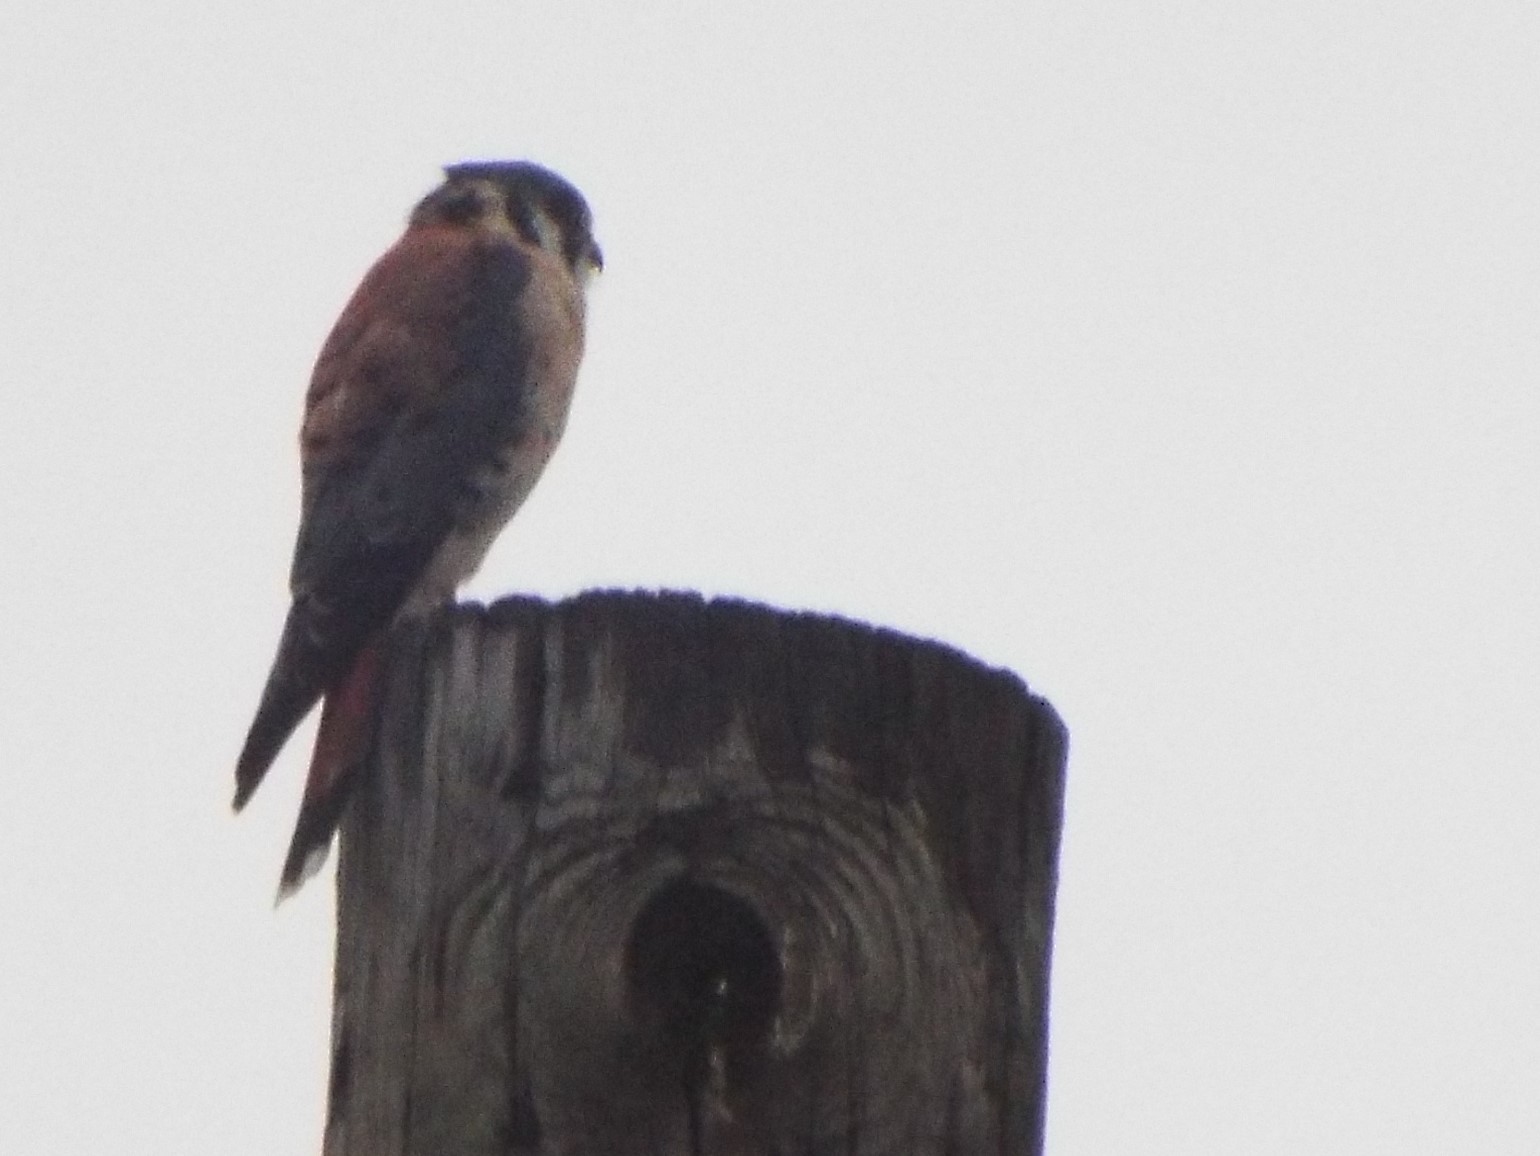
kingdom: Animalia
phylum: Chordata
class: Aves
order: Falconiformes
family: Falconidae
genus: Falco
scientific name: Falco sparverius
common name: American kestrel
